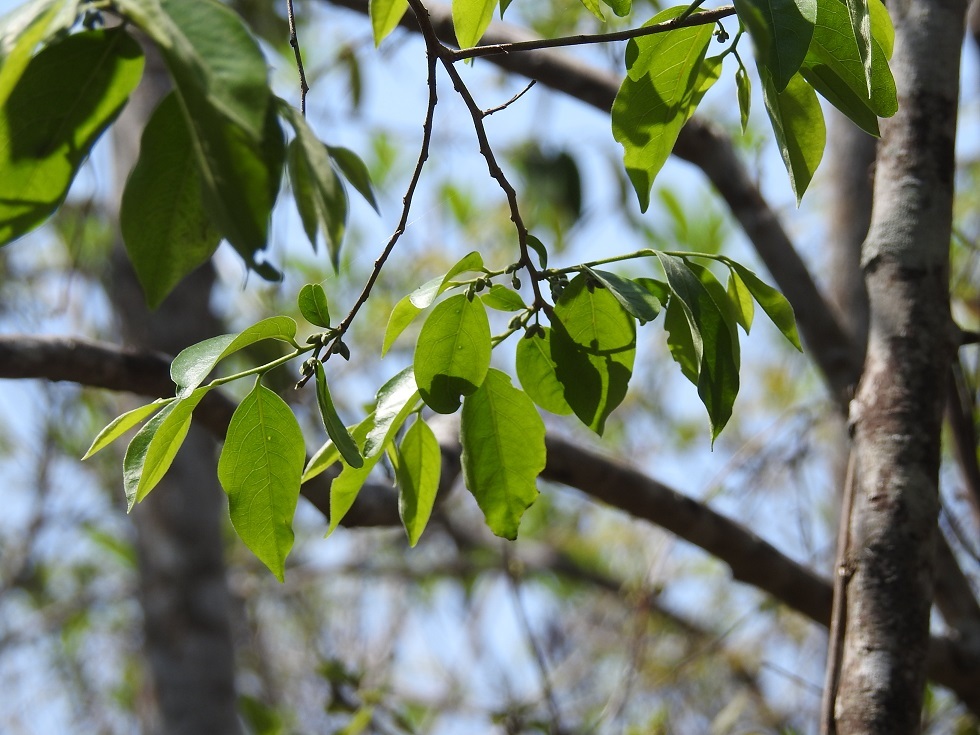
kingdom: Plantae
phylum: Tracheophyta
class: Magnoliopsida
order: Ericales
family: Ebenaceae
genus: Diospyros
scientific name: Diospyros salicifolia
